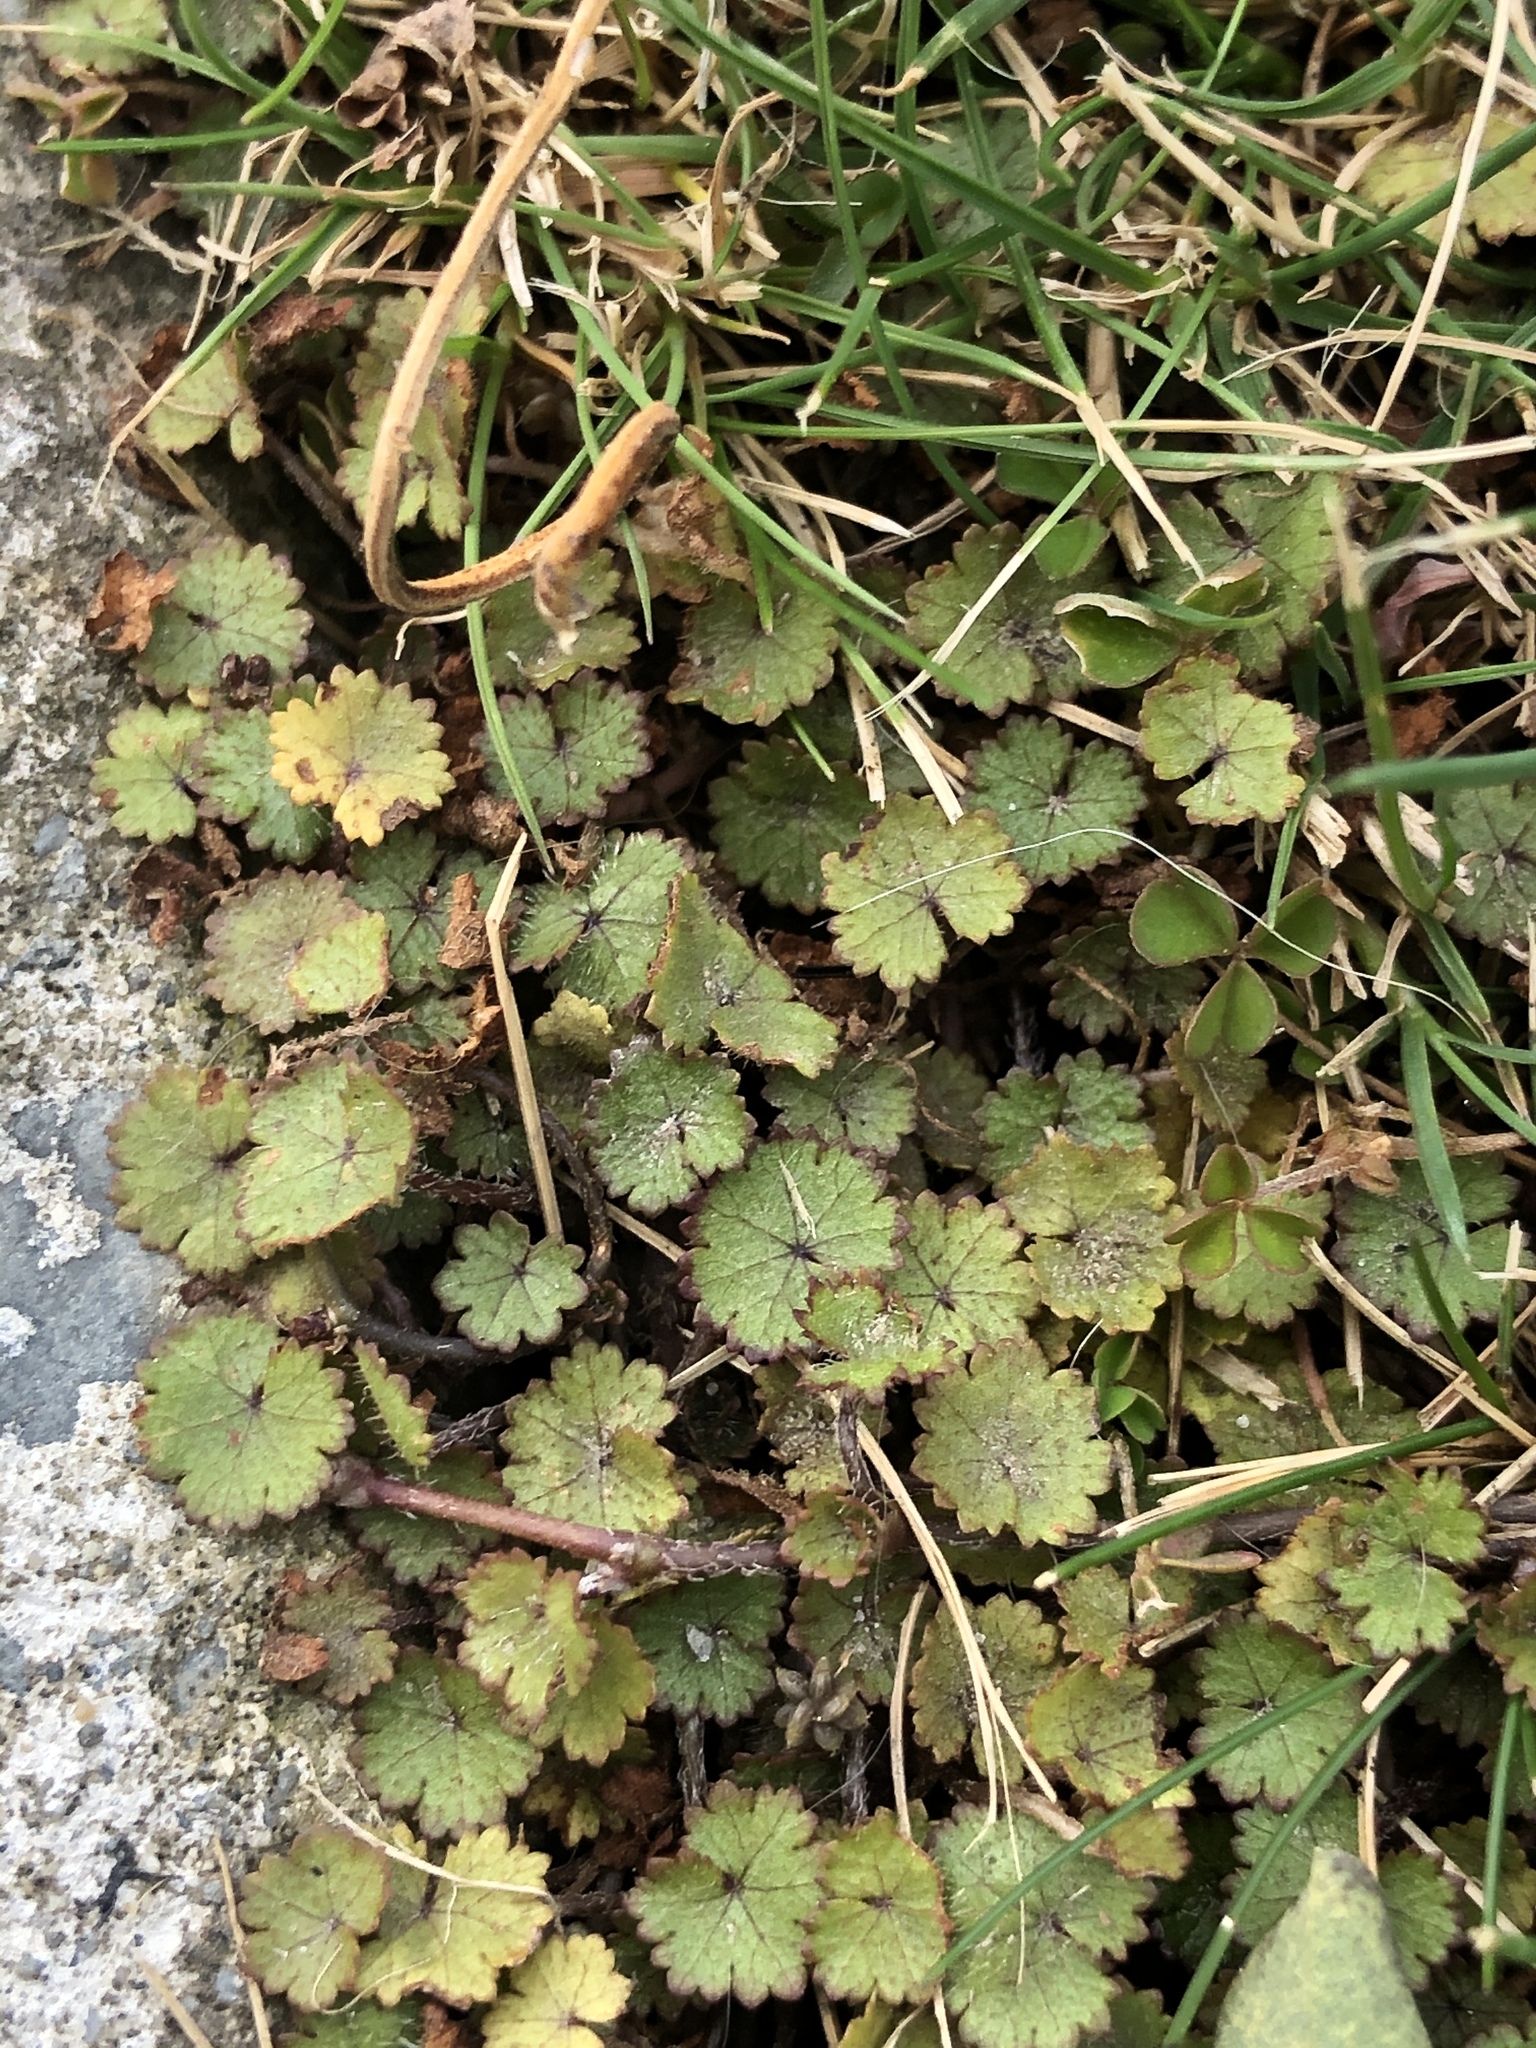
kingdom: Plantae
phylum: Tracheophyta
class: Magnoliopsida
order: Apiales
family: Araliaceae
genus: Hydrocotyle
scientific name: Hydrocotyle moschata
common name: Hairy pennywort
